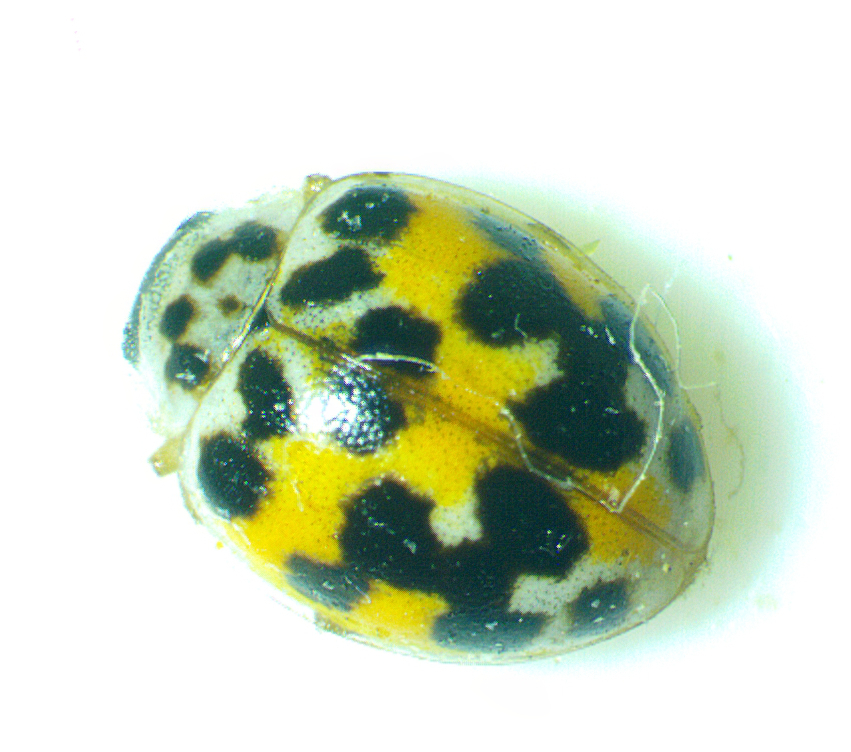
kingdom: Animalia
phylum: Arthropoda
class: Insecta
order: Coleoptera
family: Coccinellidae
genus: Psyllobora
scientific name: Psyllobora vigintimaculata
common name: Ladybird beetle
